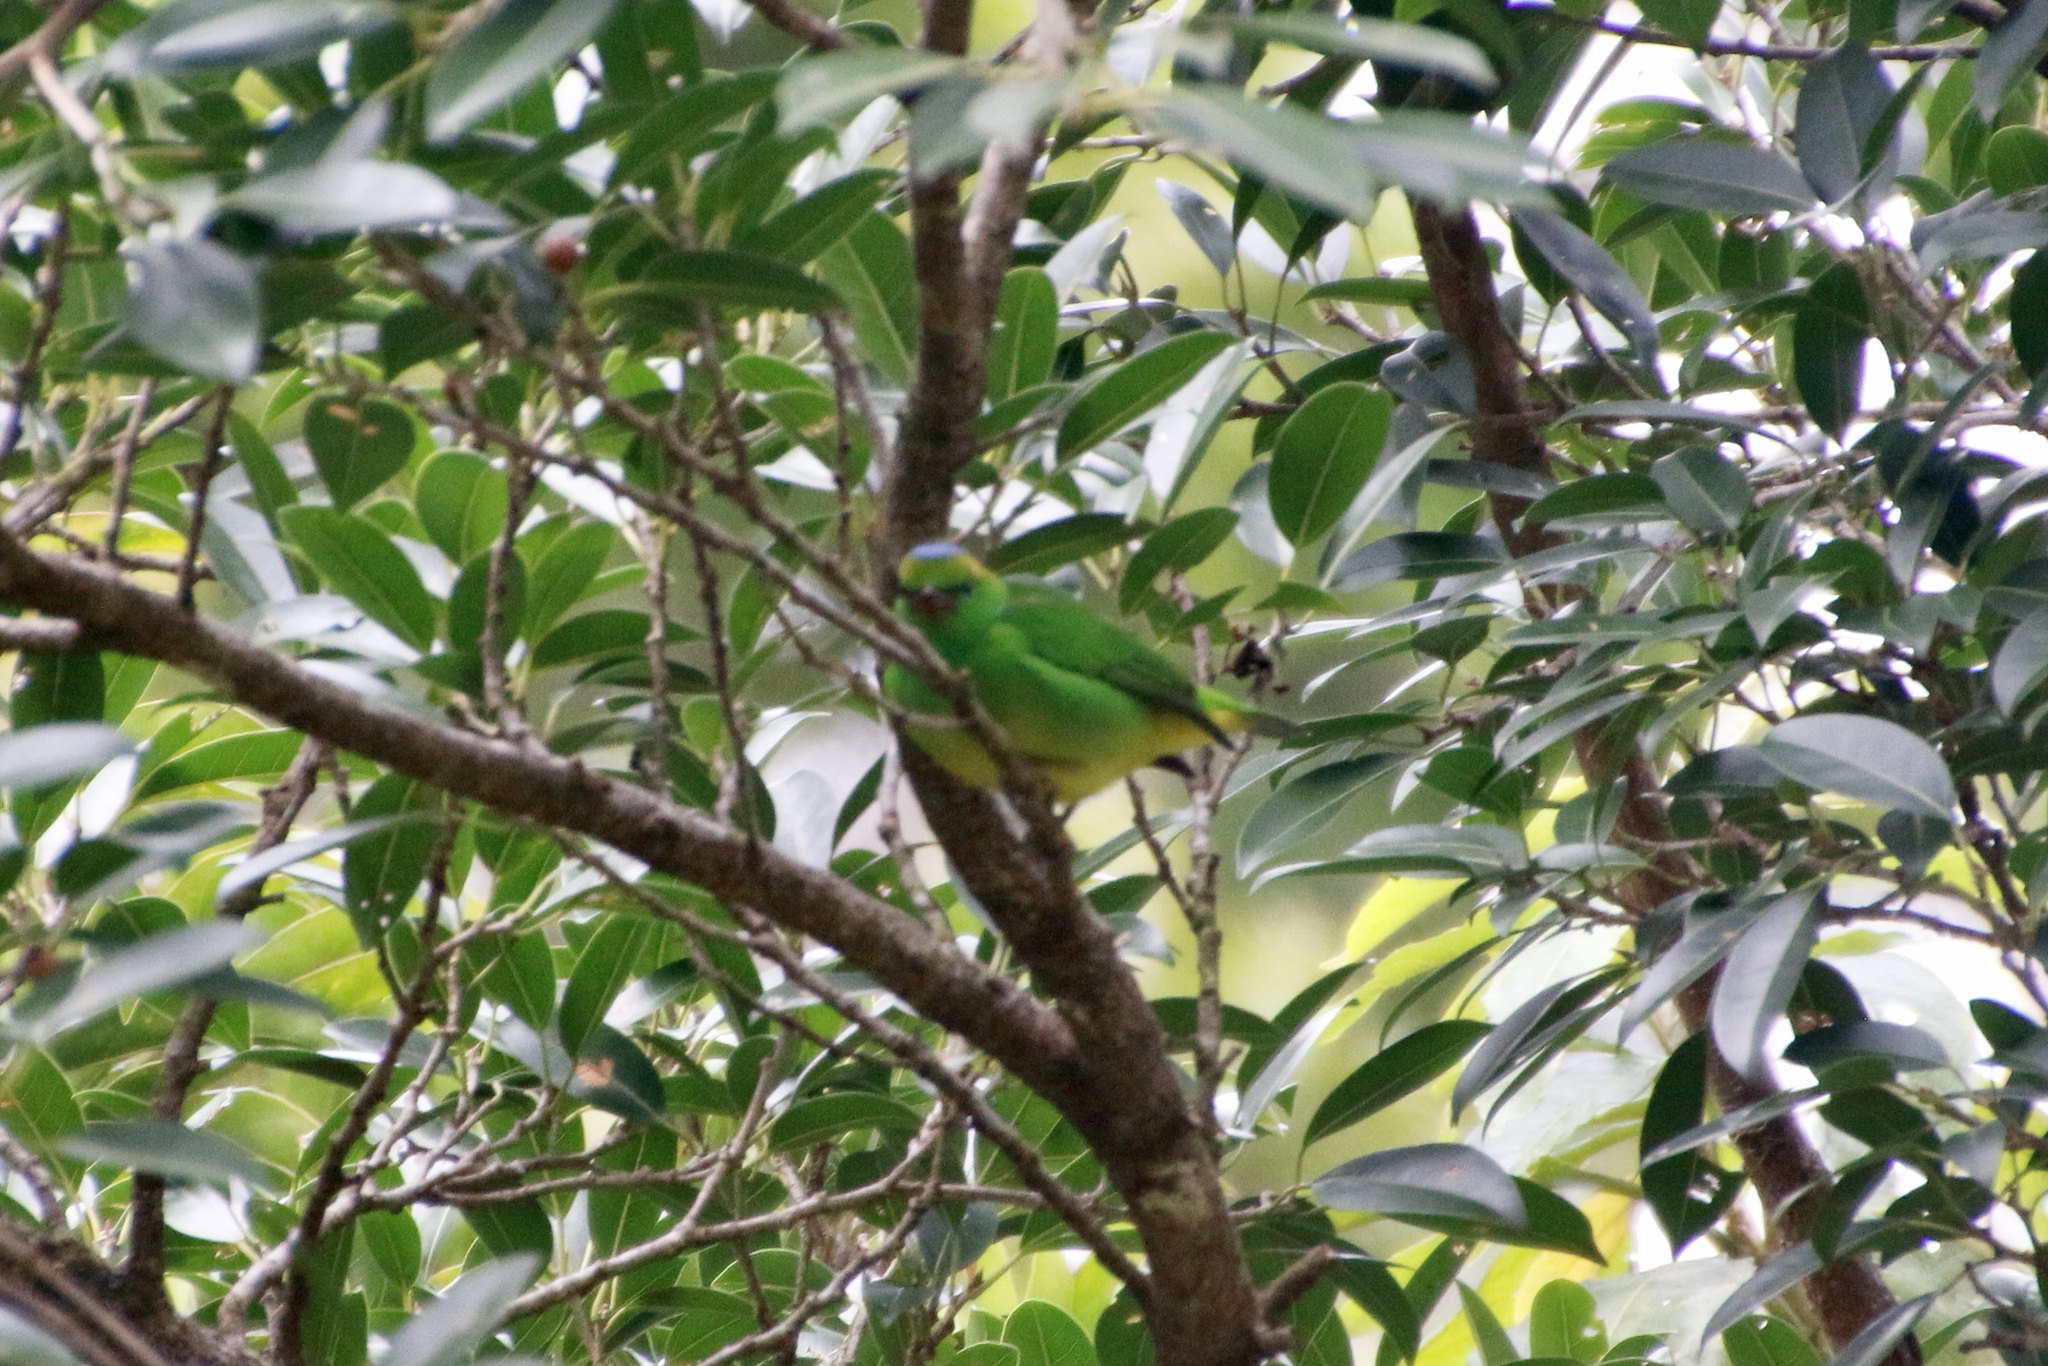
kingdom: Animalia
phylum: Chordata
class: Aves
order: Passeriformes
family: Fringillidae
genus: Chlorophonia
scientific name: Chlorophonia callophrys
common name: Golden-browed chlorophonia
